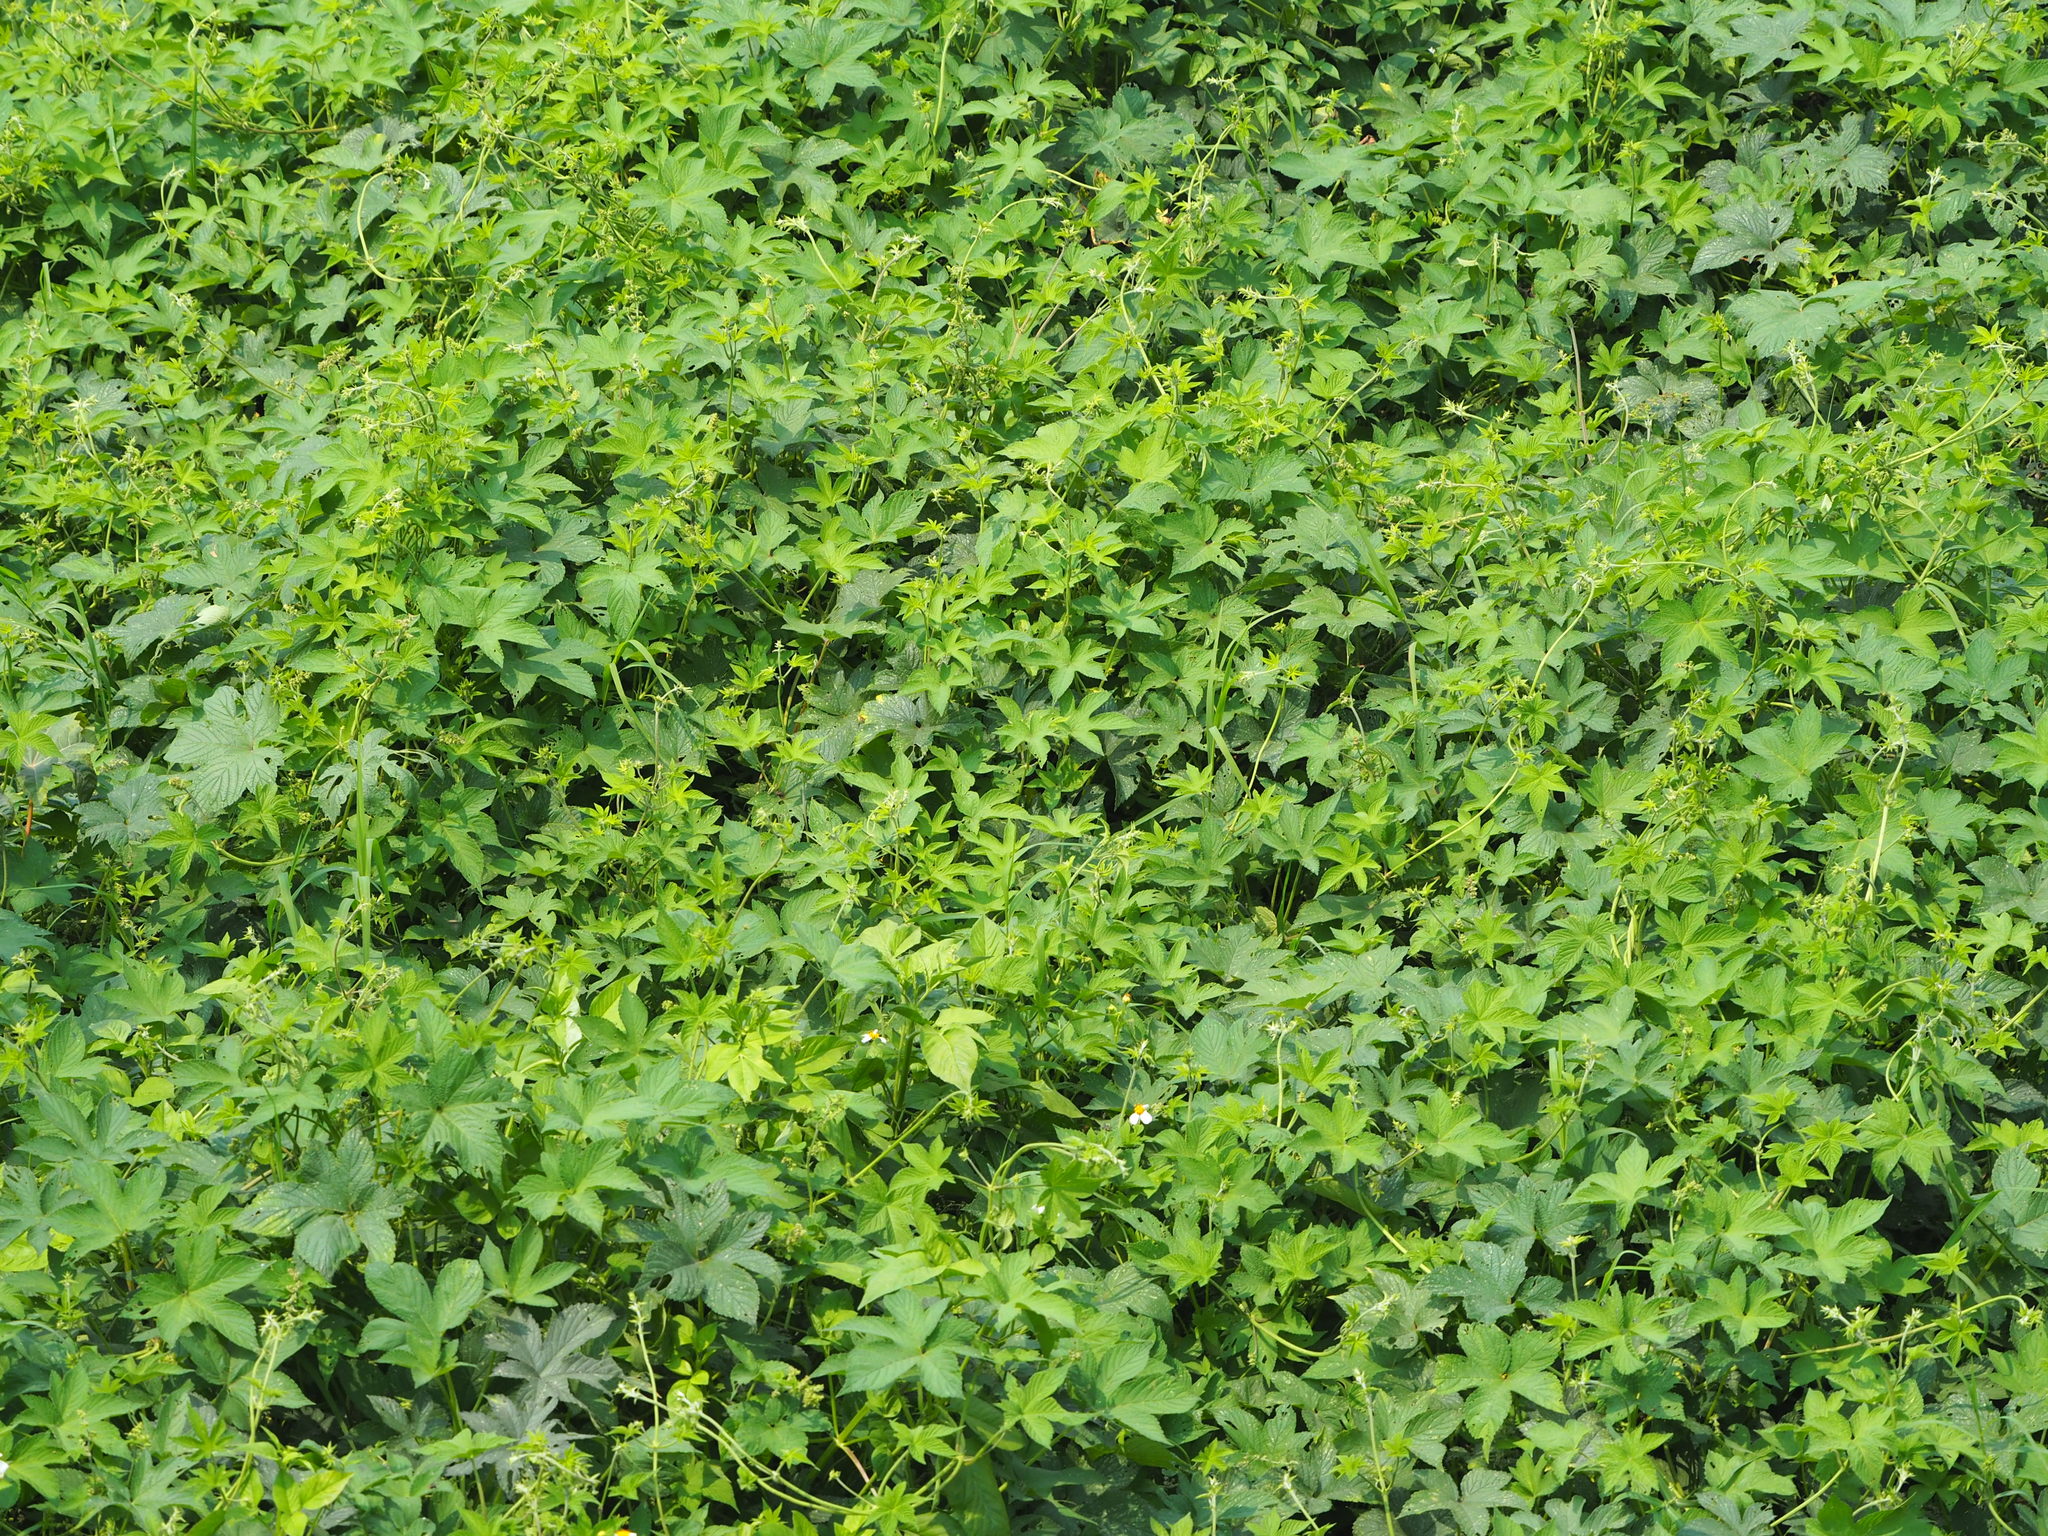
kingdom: Plantae
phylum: Tracheophyta
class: Magnoliopsida
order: Rosales
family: Cannabaceae
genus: Humulus
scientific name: Humulus scandens
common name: Japanese hop
